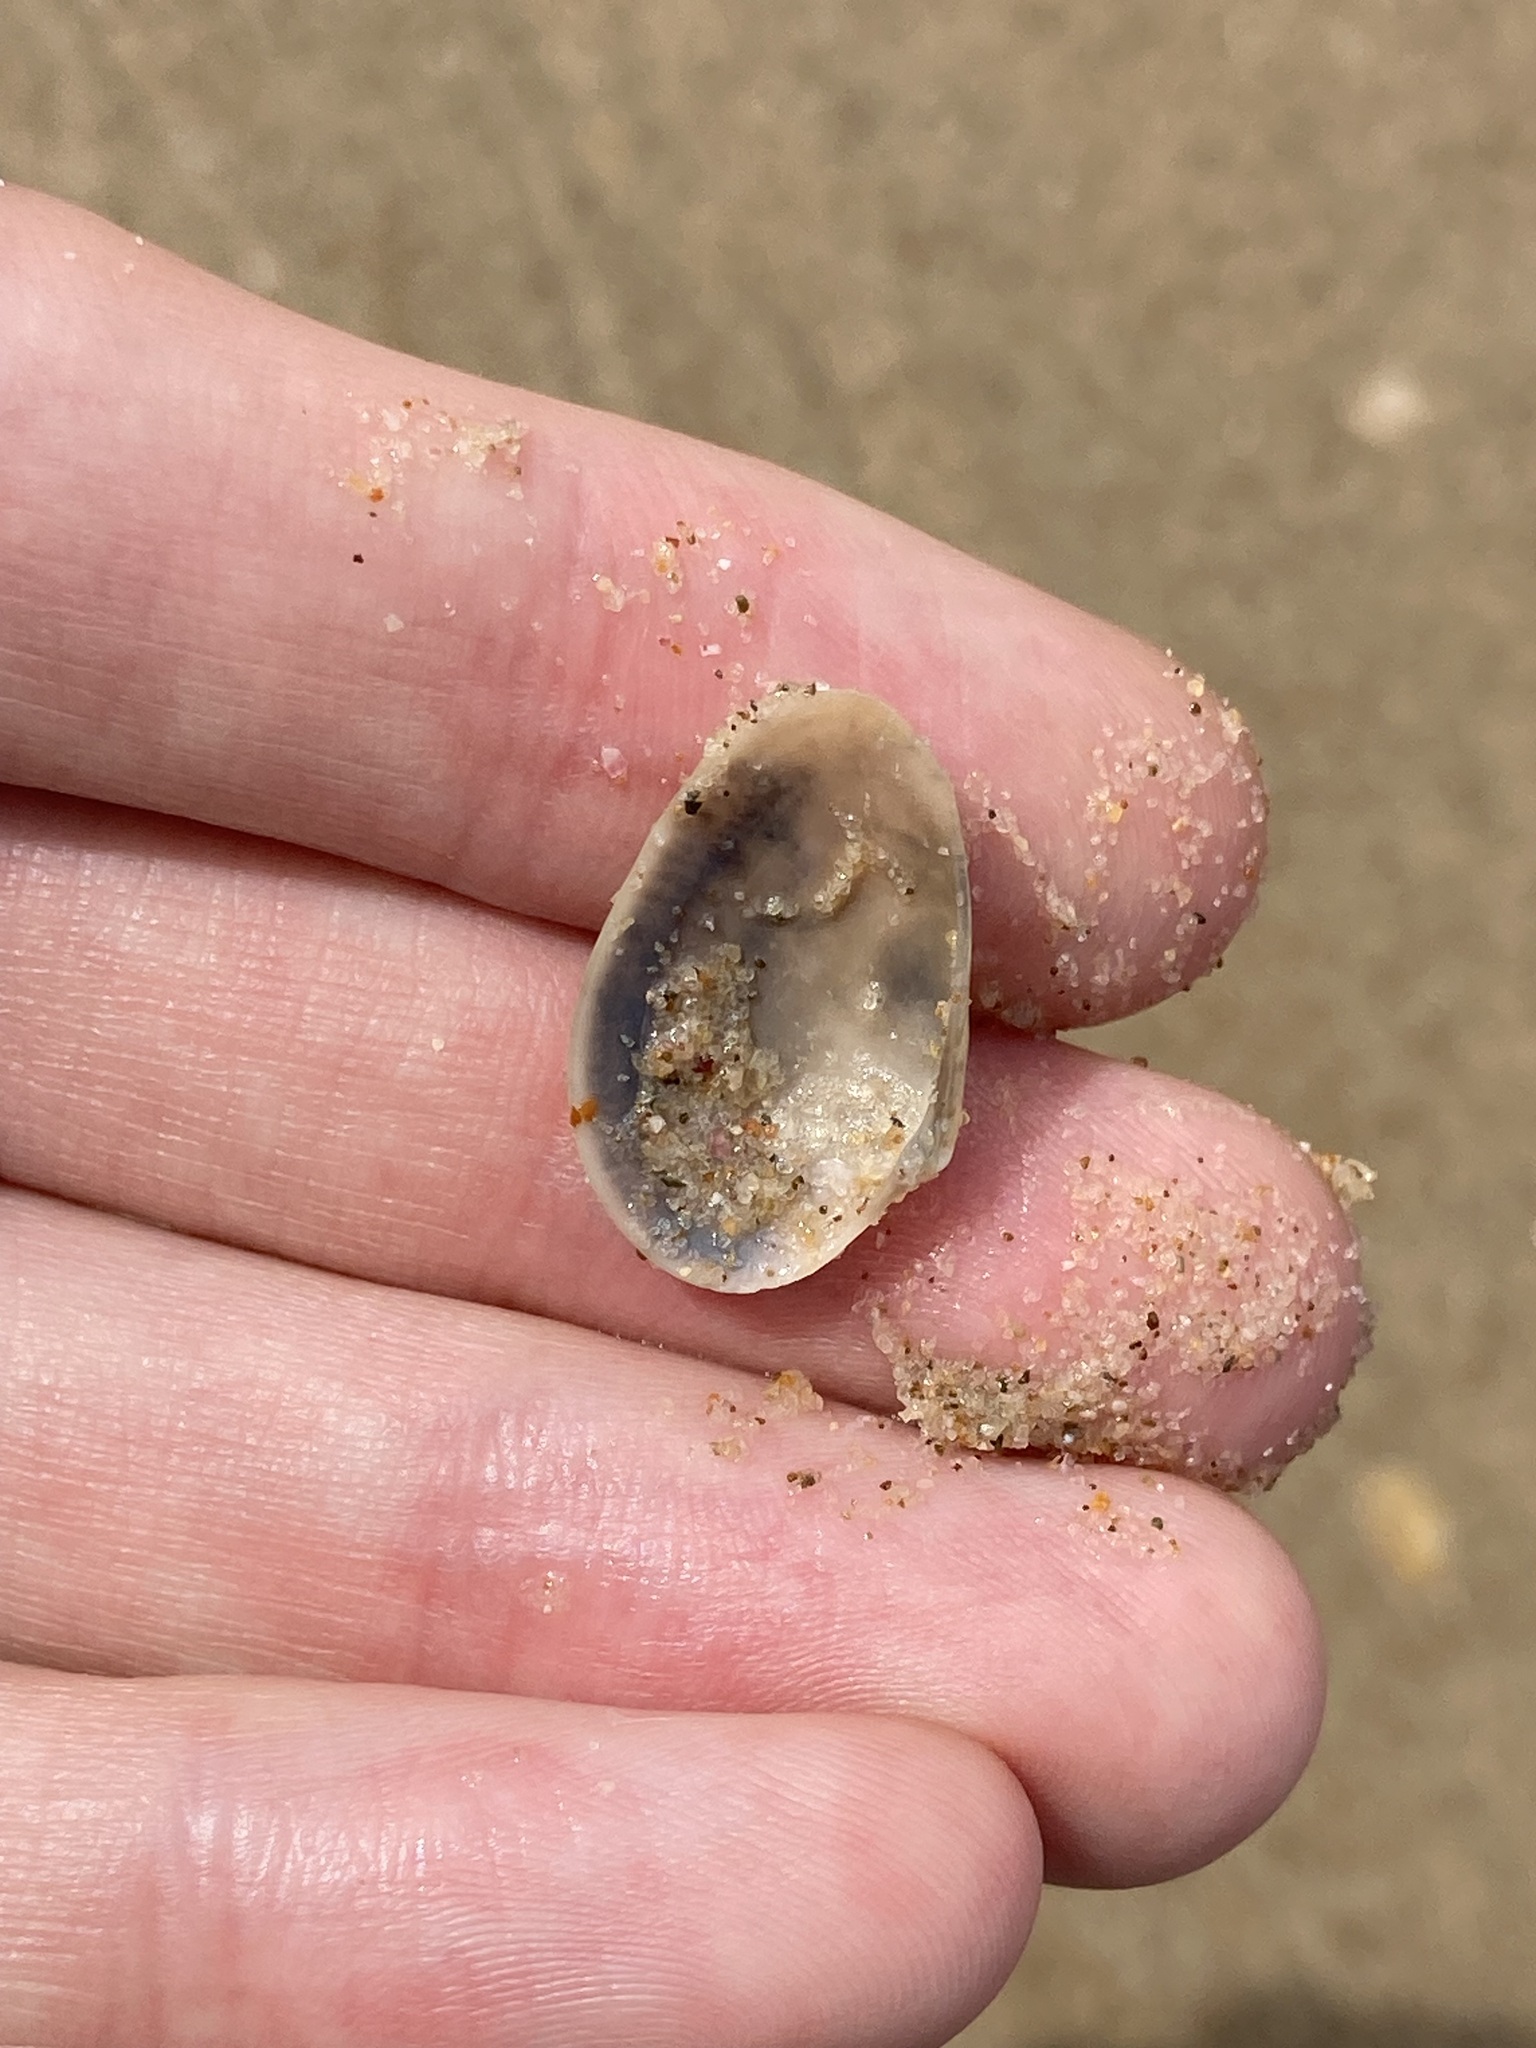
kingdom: Animalia
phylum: Mollusca
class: Bivalvia
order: Venerida
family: Veneridae
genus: Eumarcia
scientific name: Eumarcia fumigata
